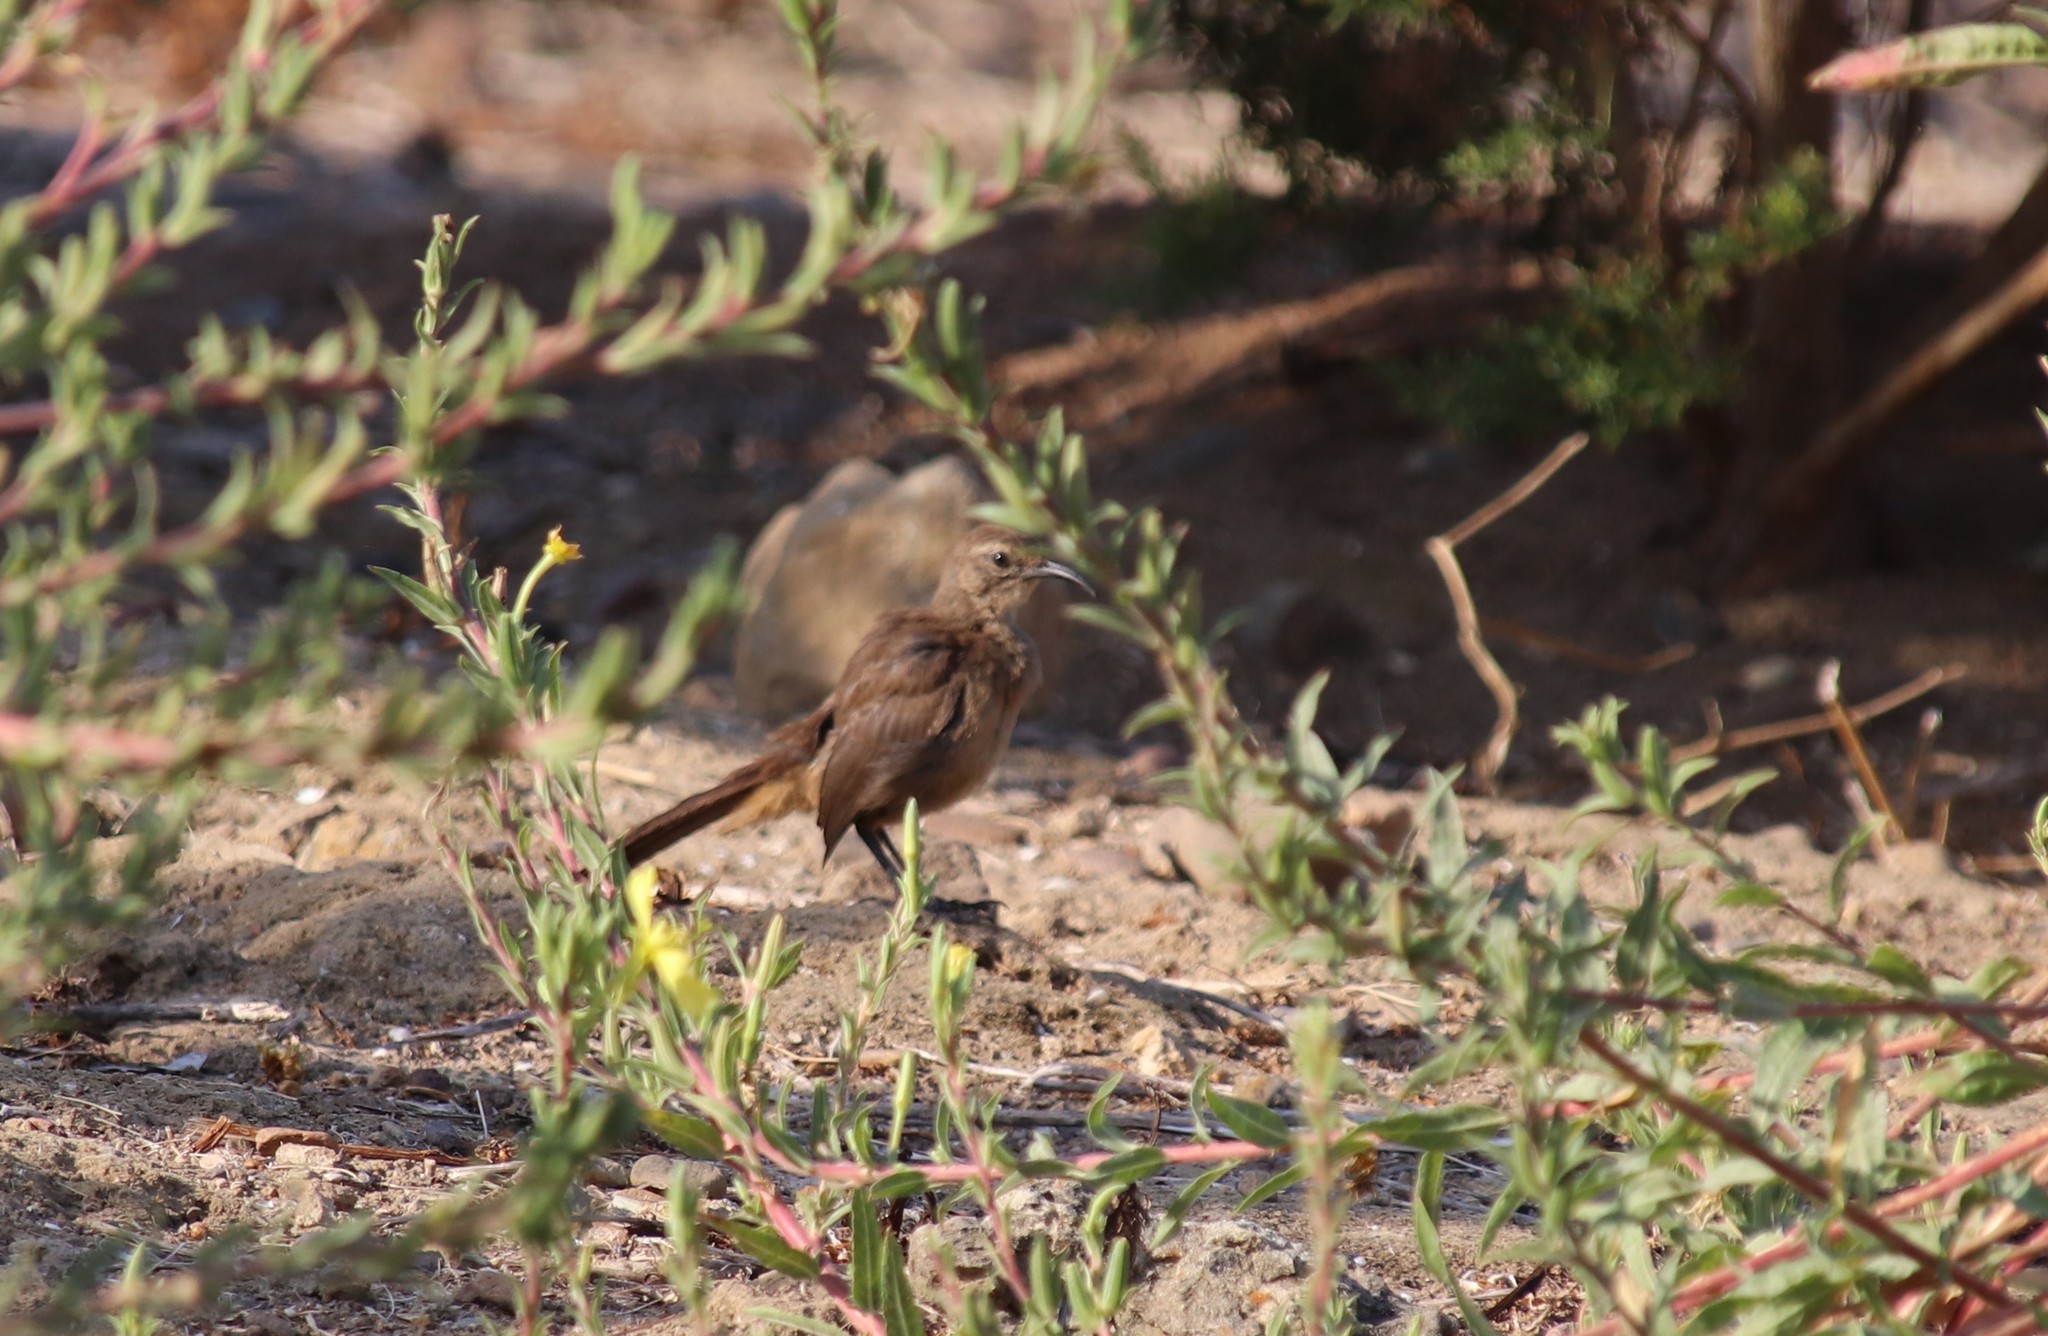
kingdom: Animalia
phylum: Chordata
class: Aves
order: Passeriformes
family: Mimidae
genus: Toxostoma
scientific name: Toxostoma redivivum
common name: California thrasher
